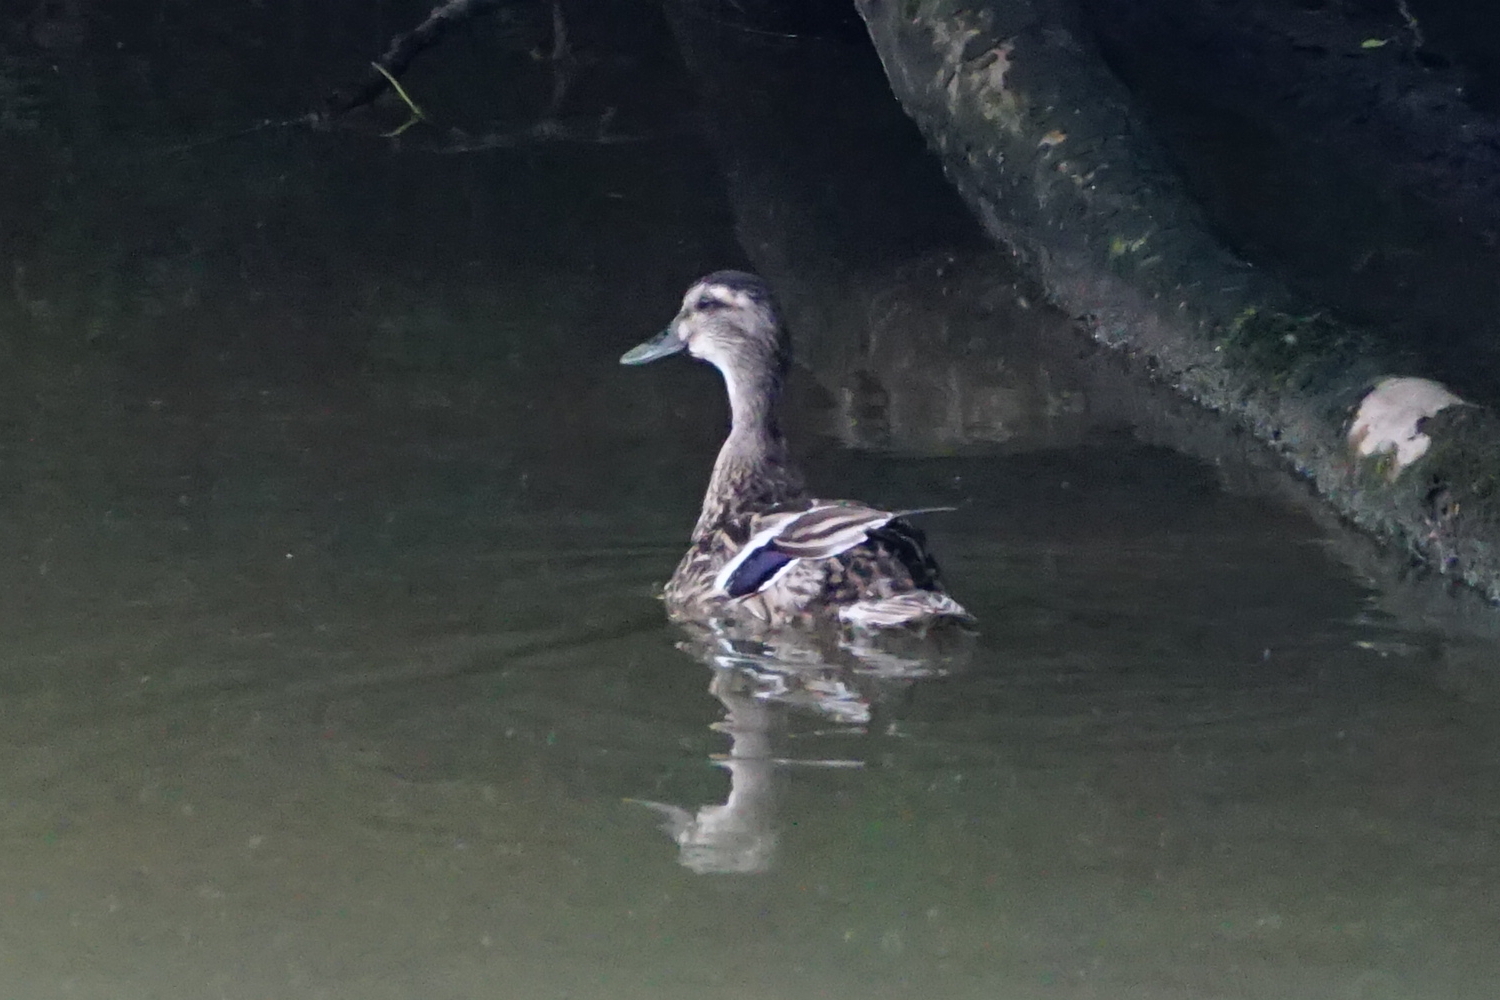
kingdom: Animalia
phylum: Chordata
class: Aves
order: Anseriformes
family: Anatidae
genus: Anas
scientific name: Anas platyrhynchos
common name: Mallard
